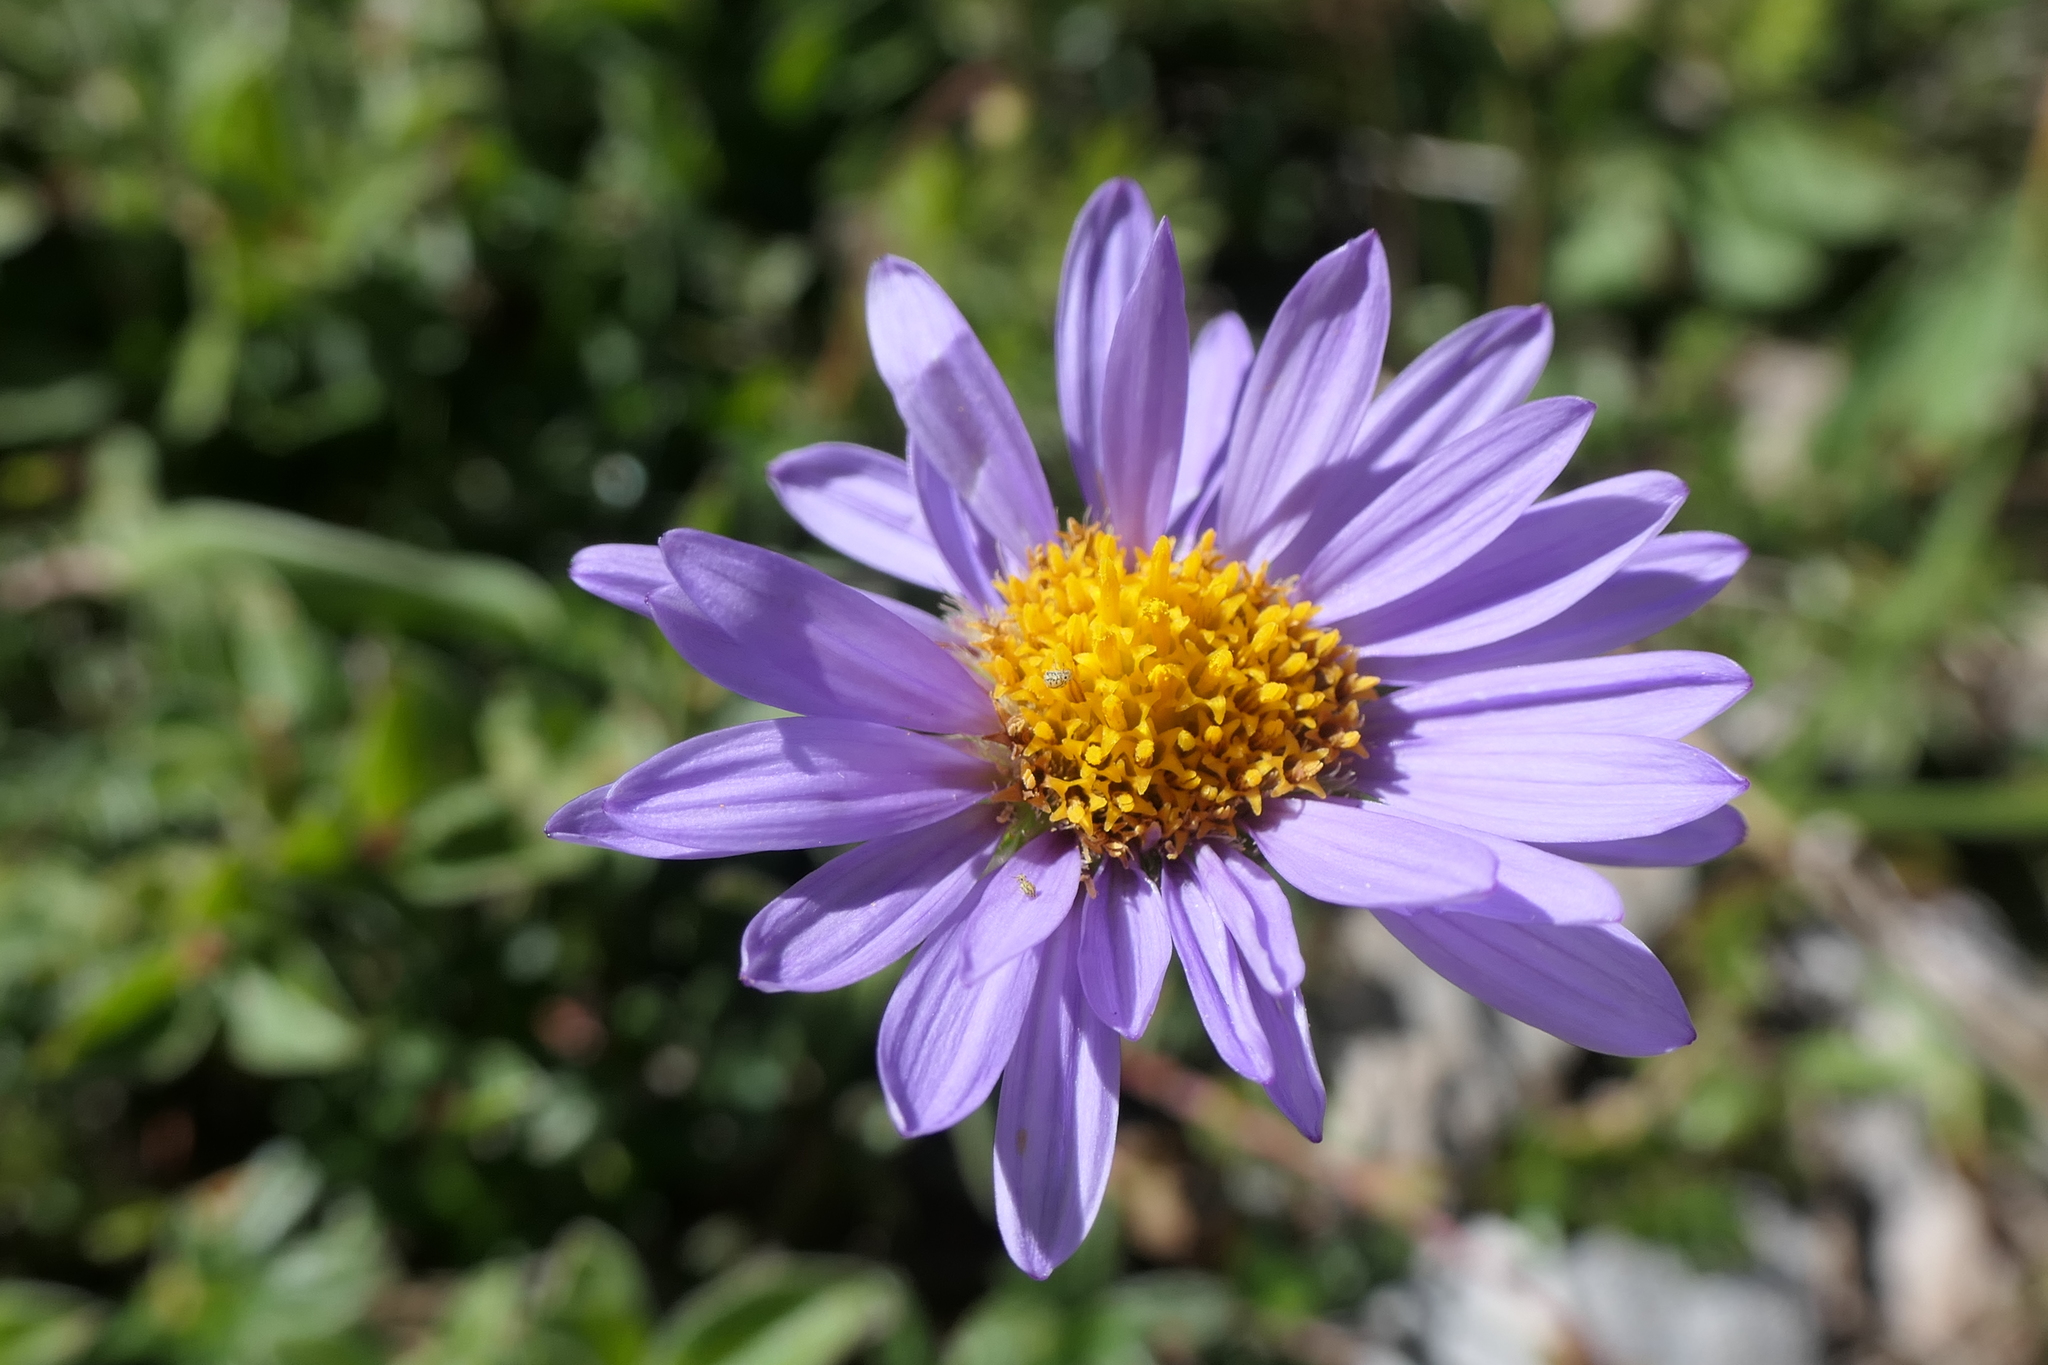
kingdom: Plantae
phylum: Tracheophyta
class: Magnoliopsida
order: Asterales
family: Asteraceae
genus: Aster
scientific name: Aster alpinus
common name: Alpine aster
